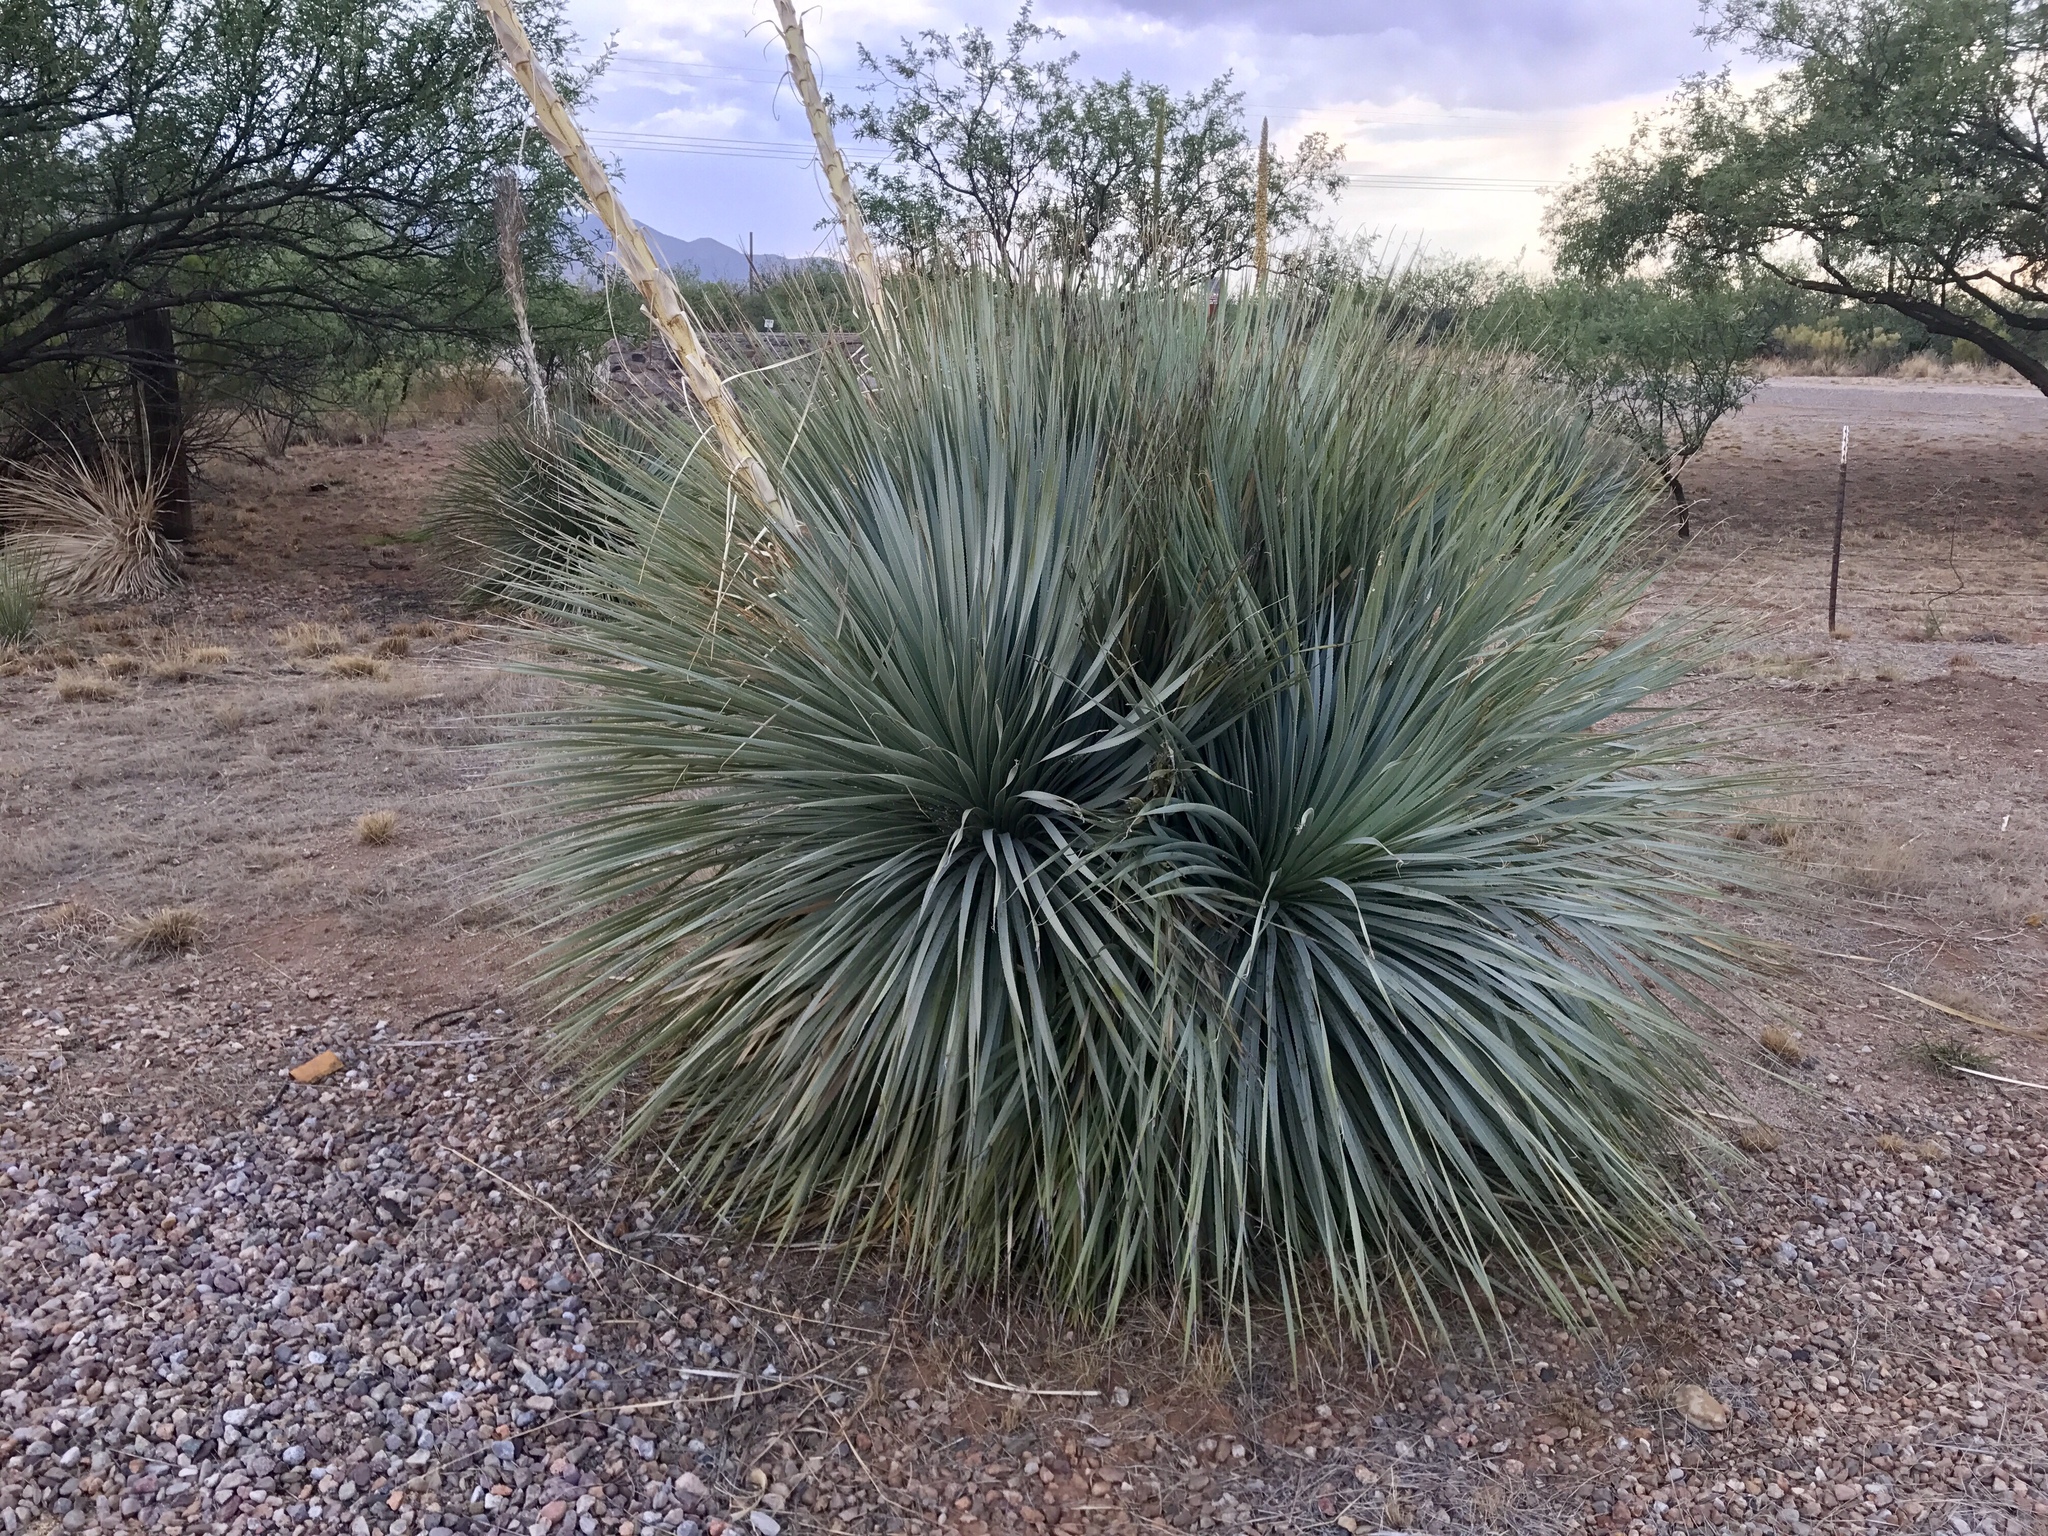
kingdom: Plantae
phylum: Tracheophyta
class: Liliopsida
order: Asparagales
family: Asparagaceae
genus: Dasylirion
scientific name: Dasylirion wheeleri
